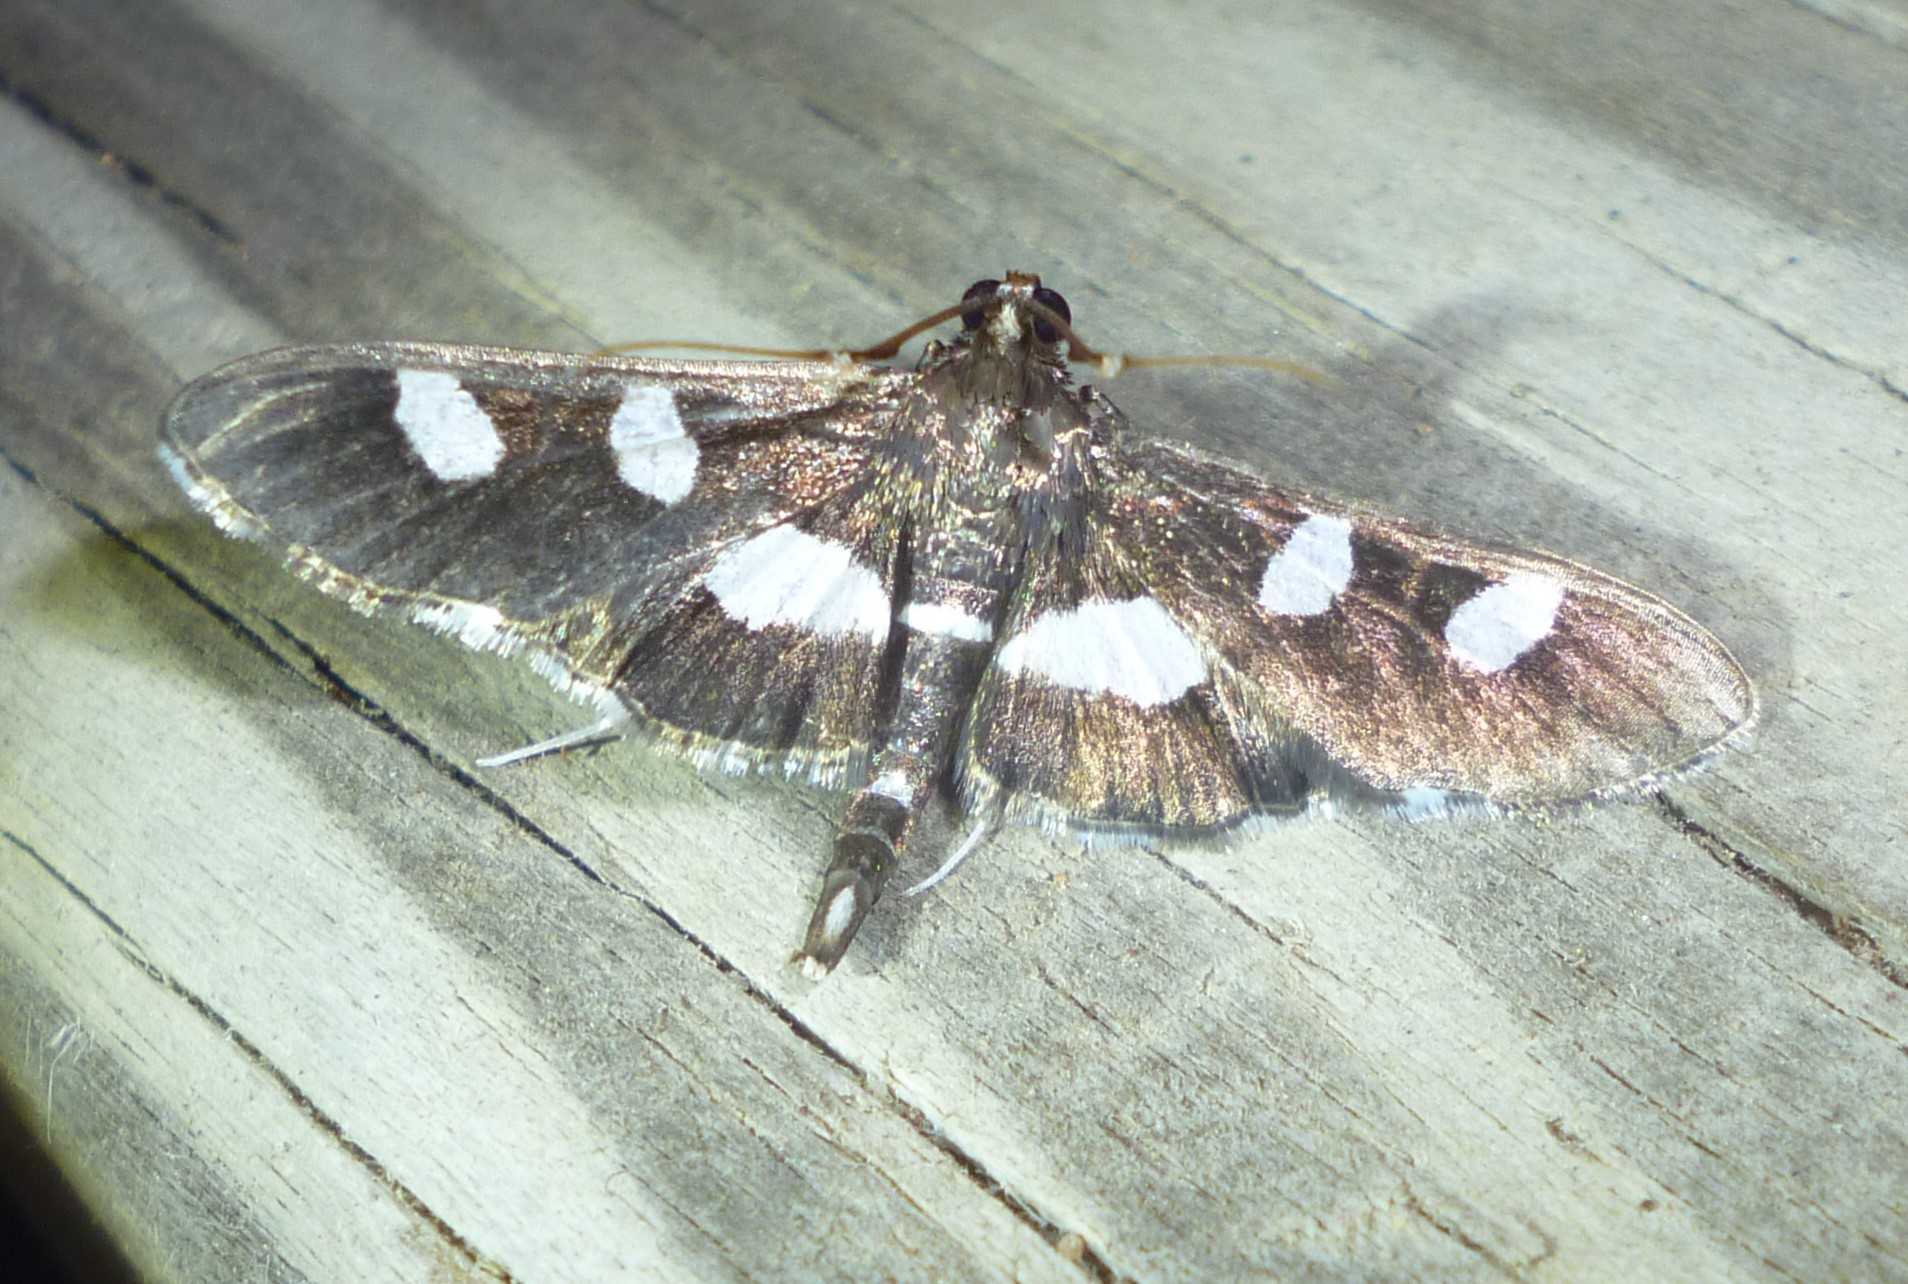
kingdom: Animalia
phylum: Arthropoda
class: Insecta
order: Lepidoptera
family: Crambidae
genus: Desmia
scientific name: Desmia
